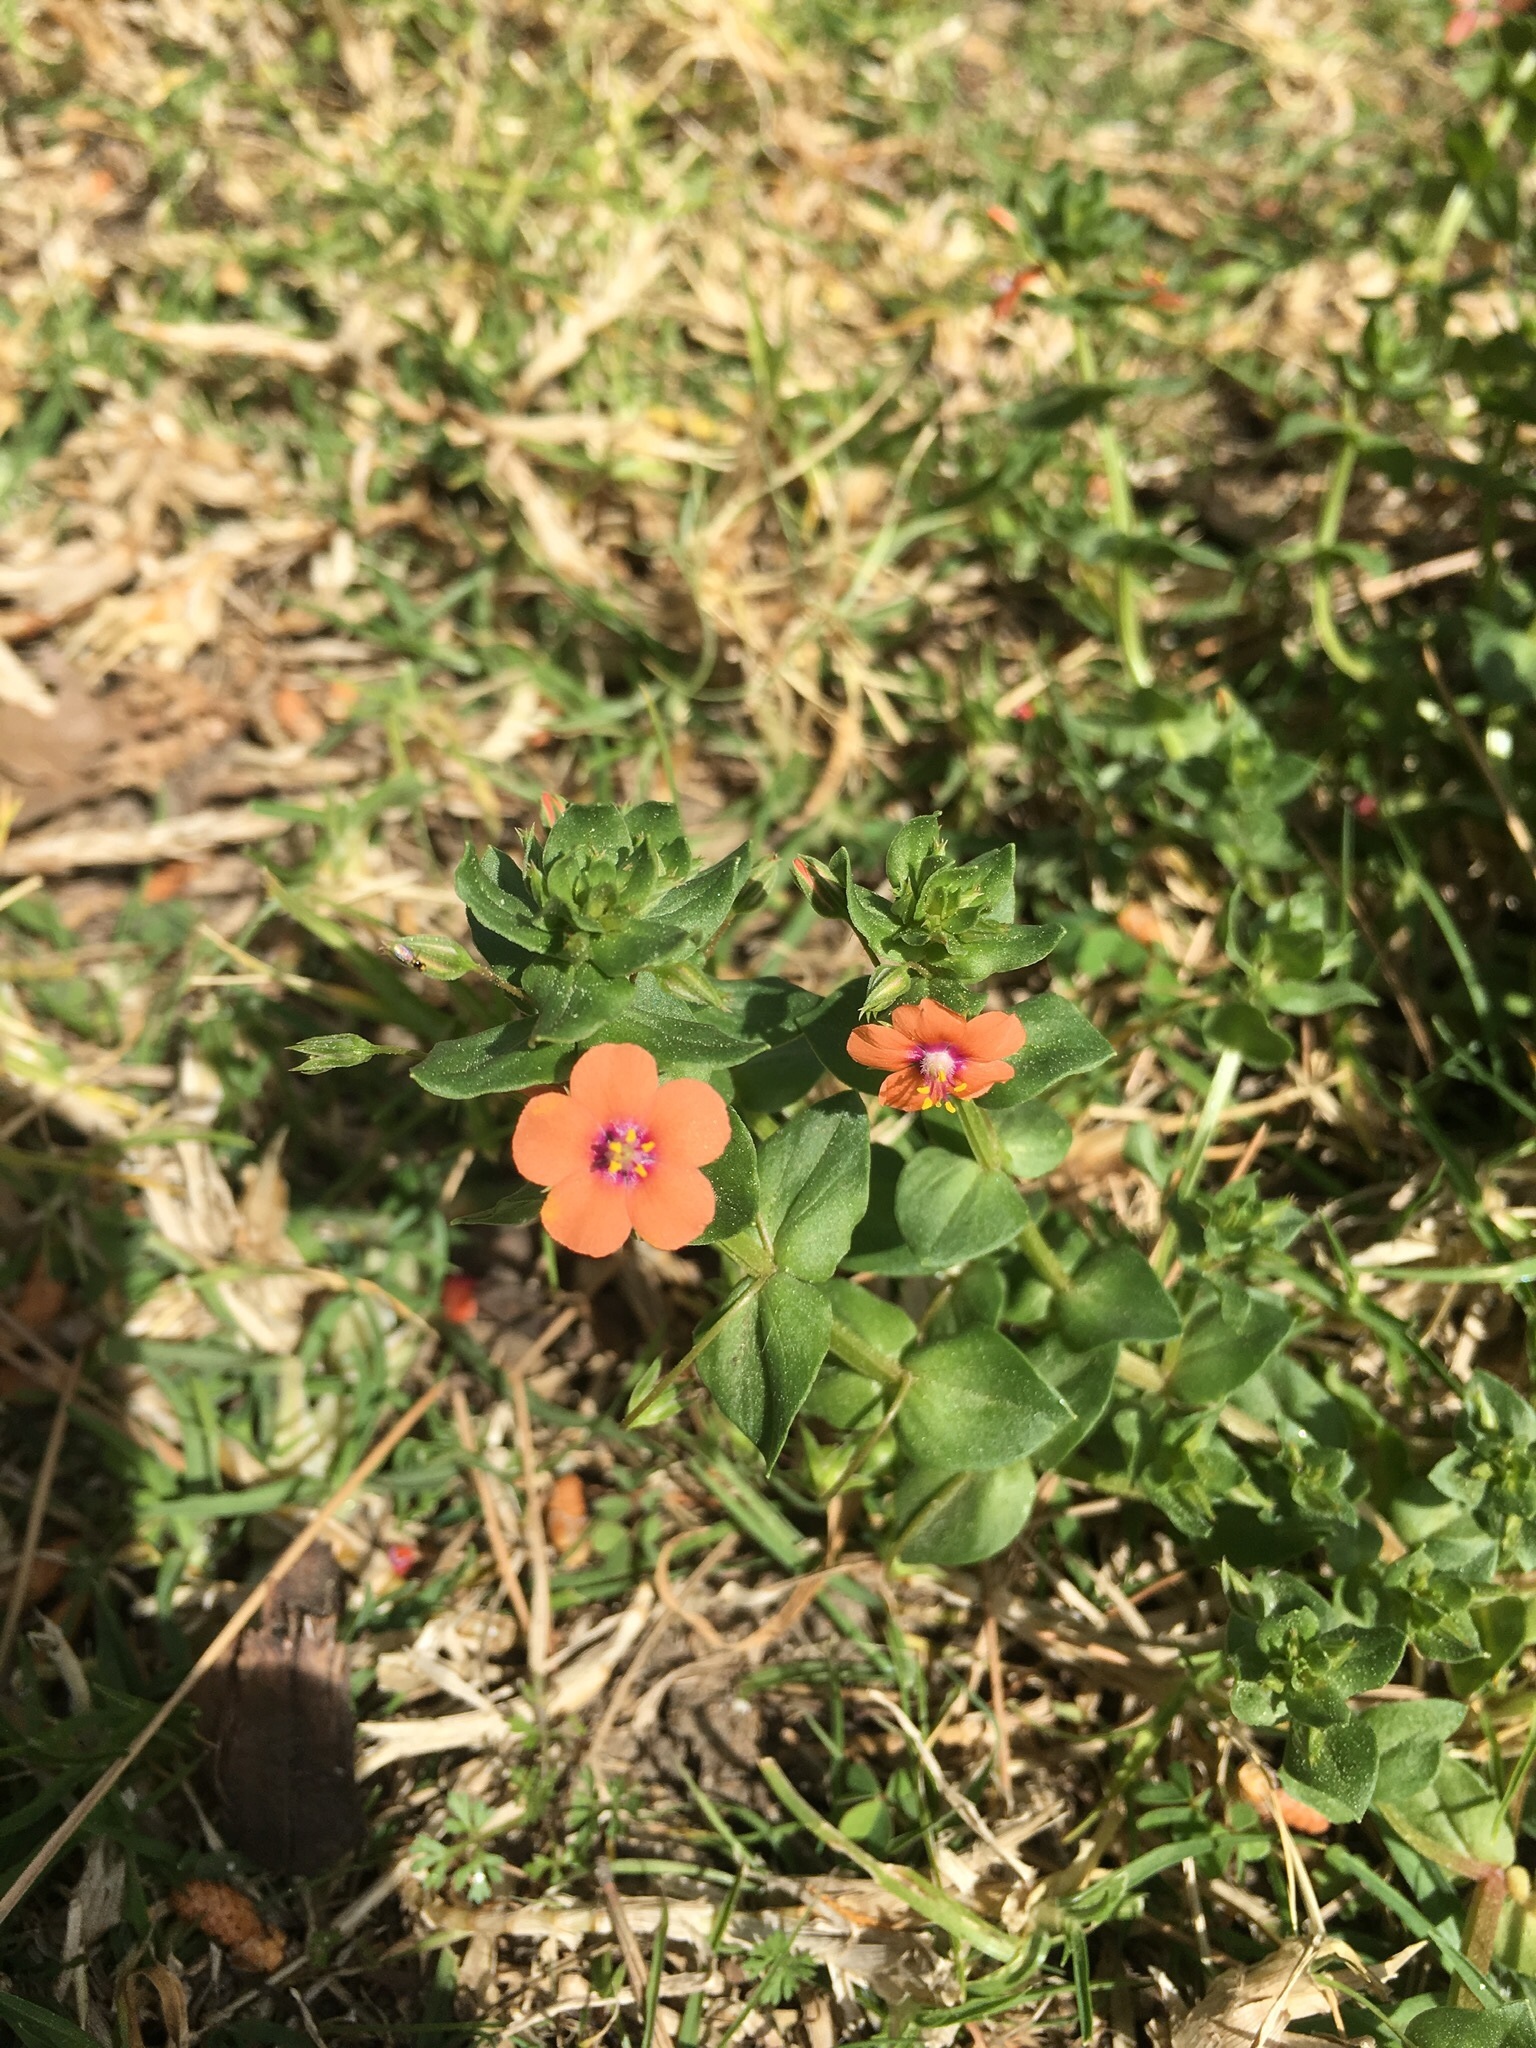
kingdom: Plantae
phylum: Tracheophyta
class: Magnoliopsida
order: Ericales
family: Primulaceae
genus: Lysimachia
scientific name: Lysimachia arvensis
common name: Scarlet pimpernel
